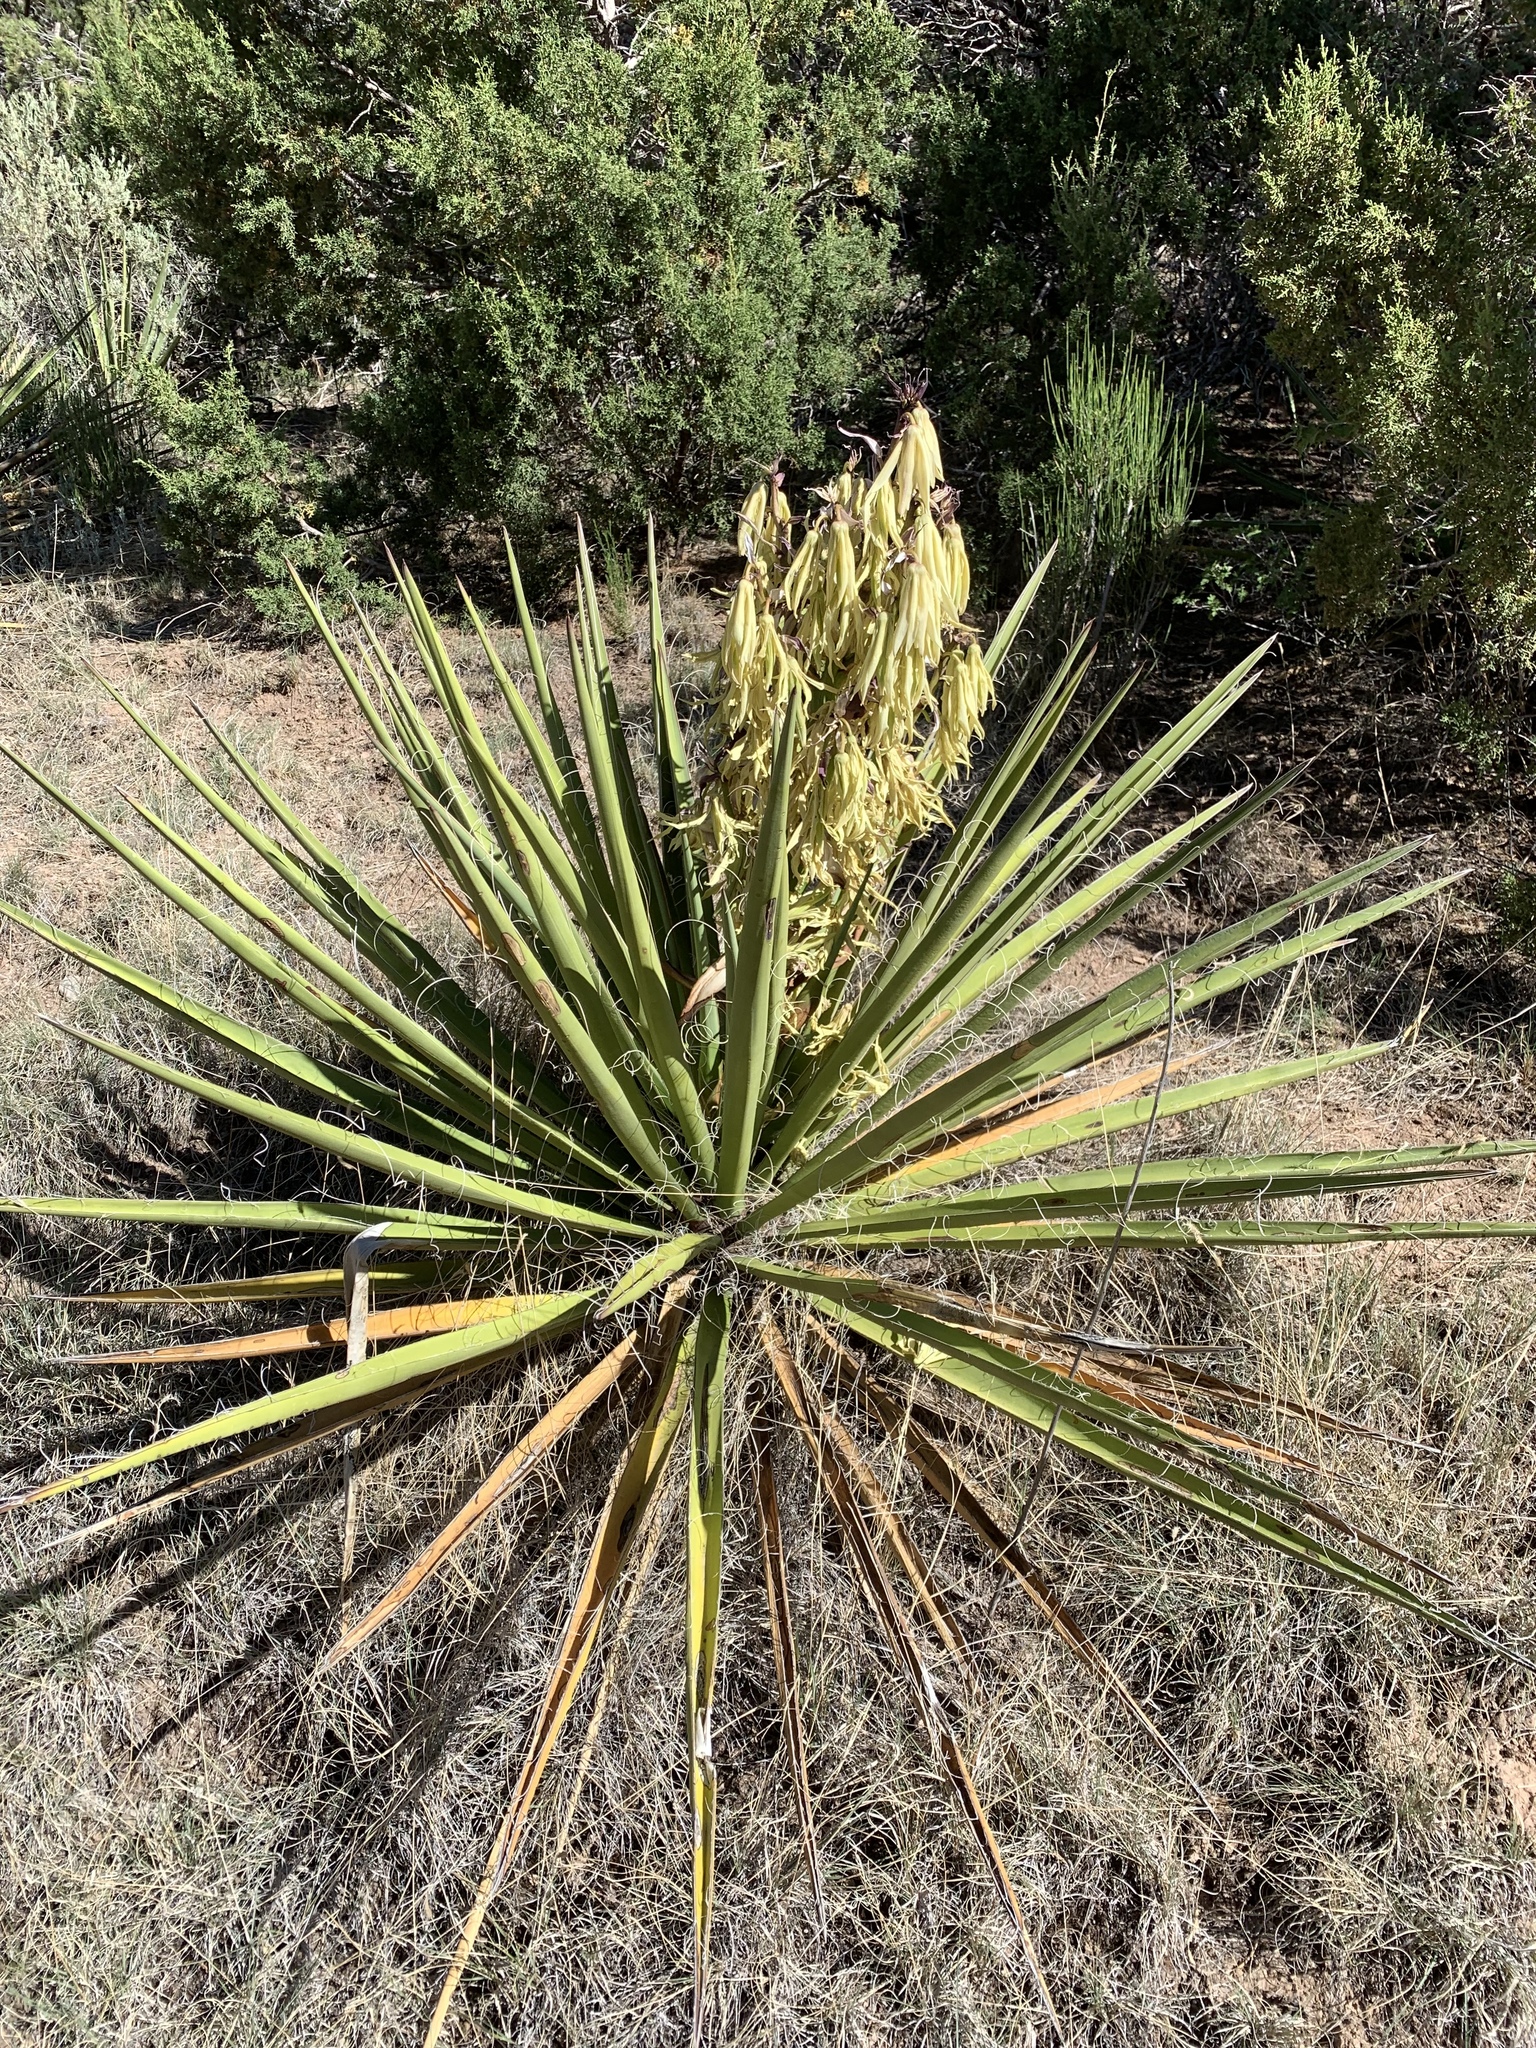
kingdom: Plantae
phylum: Tracheophyta
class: Liliopsida
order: Asparagales
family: Asparagaceae
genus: Yucca
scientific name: Yucca baccata
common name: Banana yucca
